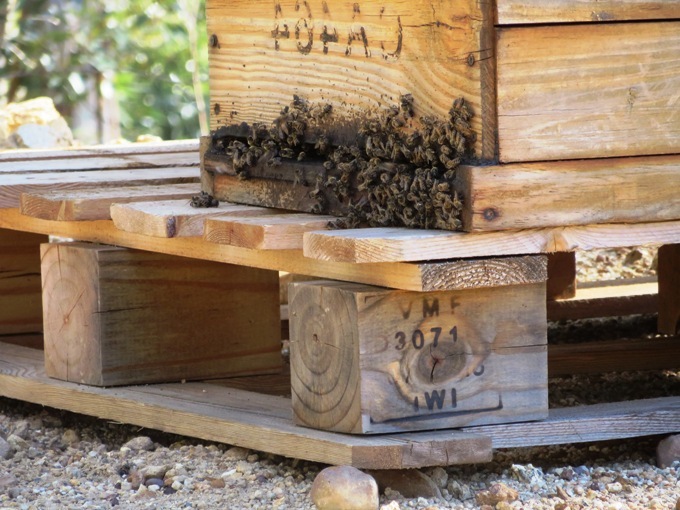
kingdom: Animalia
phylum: Arthropoda
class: Insecta
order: Hymenoptera
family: Apidae
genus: Apis
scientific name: Apis mellifera
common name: Honey bee
